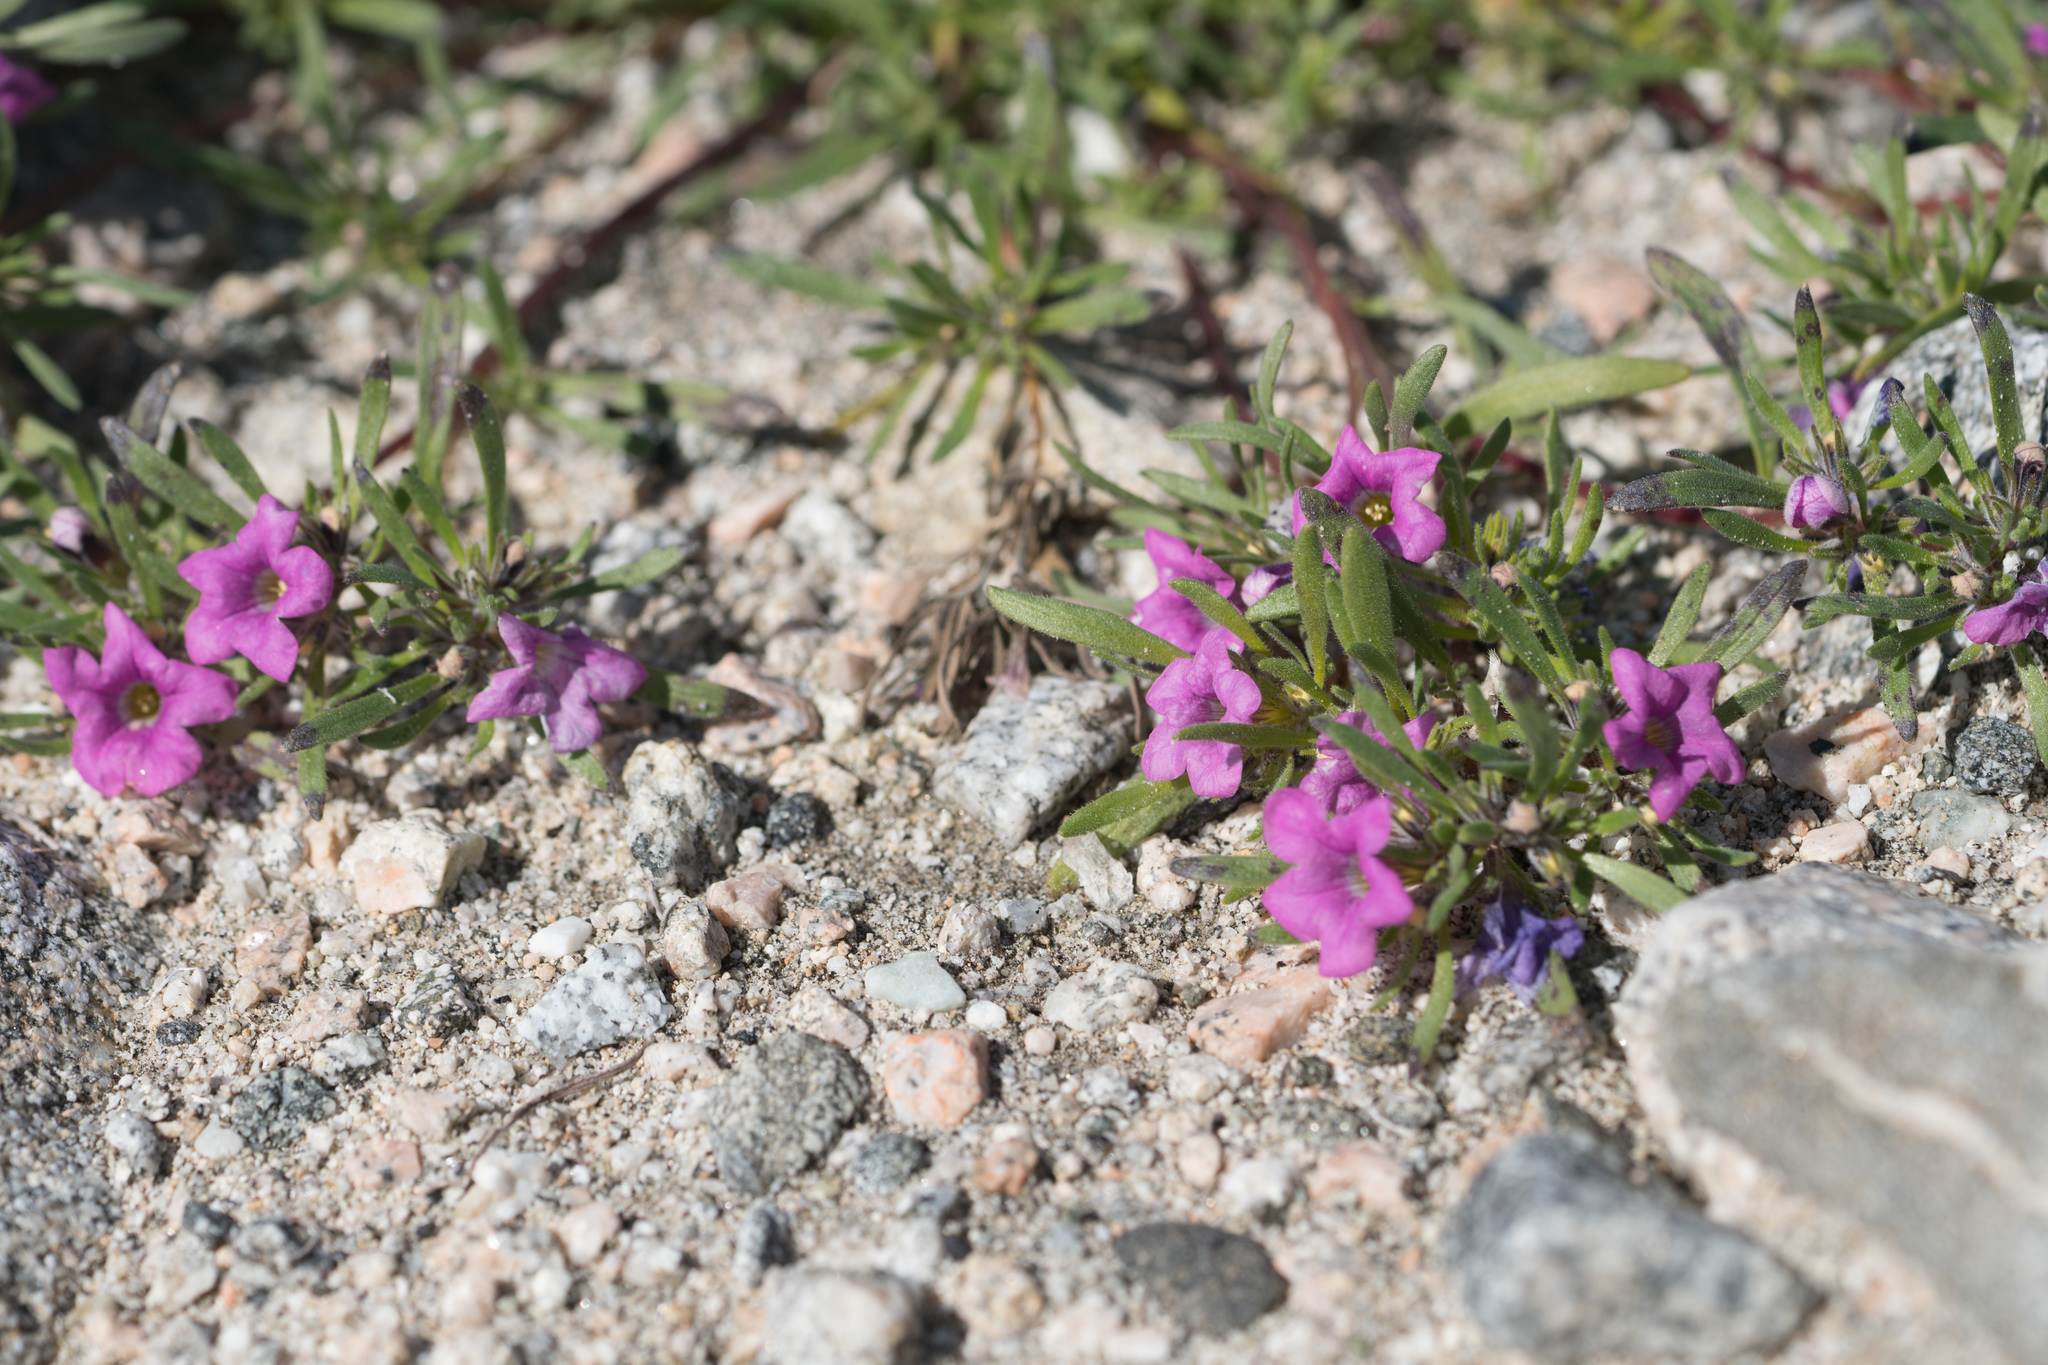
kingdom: Plantae
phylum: Tracheophyta
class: Magnoliopsida
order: Boraginales
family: Namaceae
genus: Nama
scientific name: Nama demissa
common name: Leafy nama
